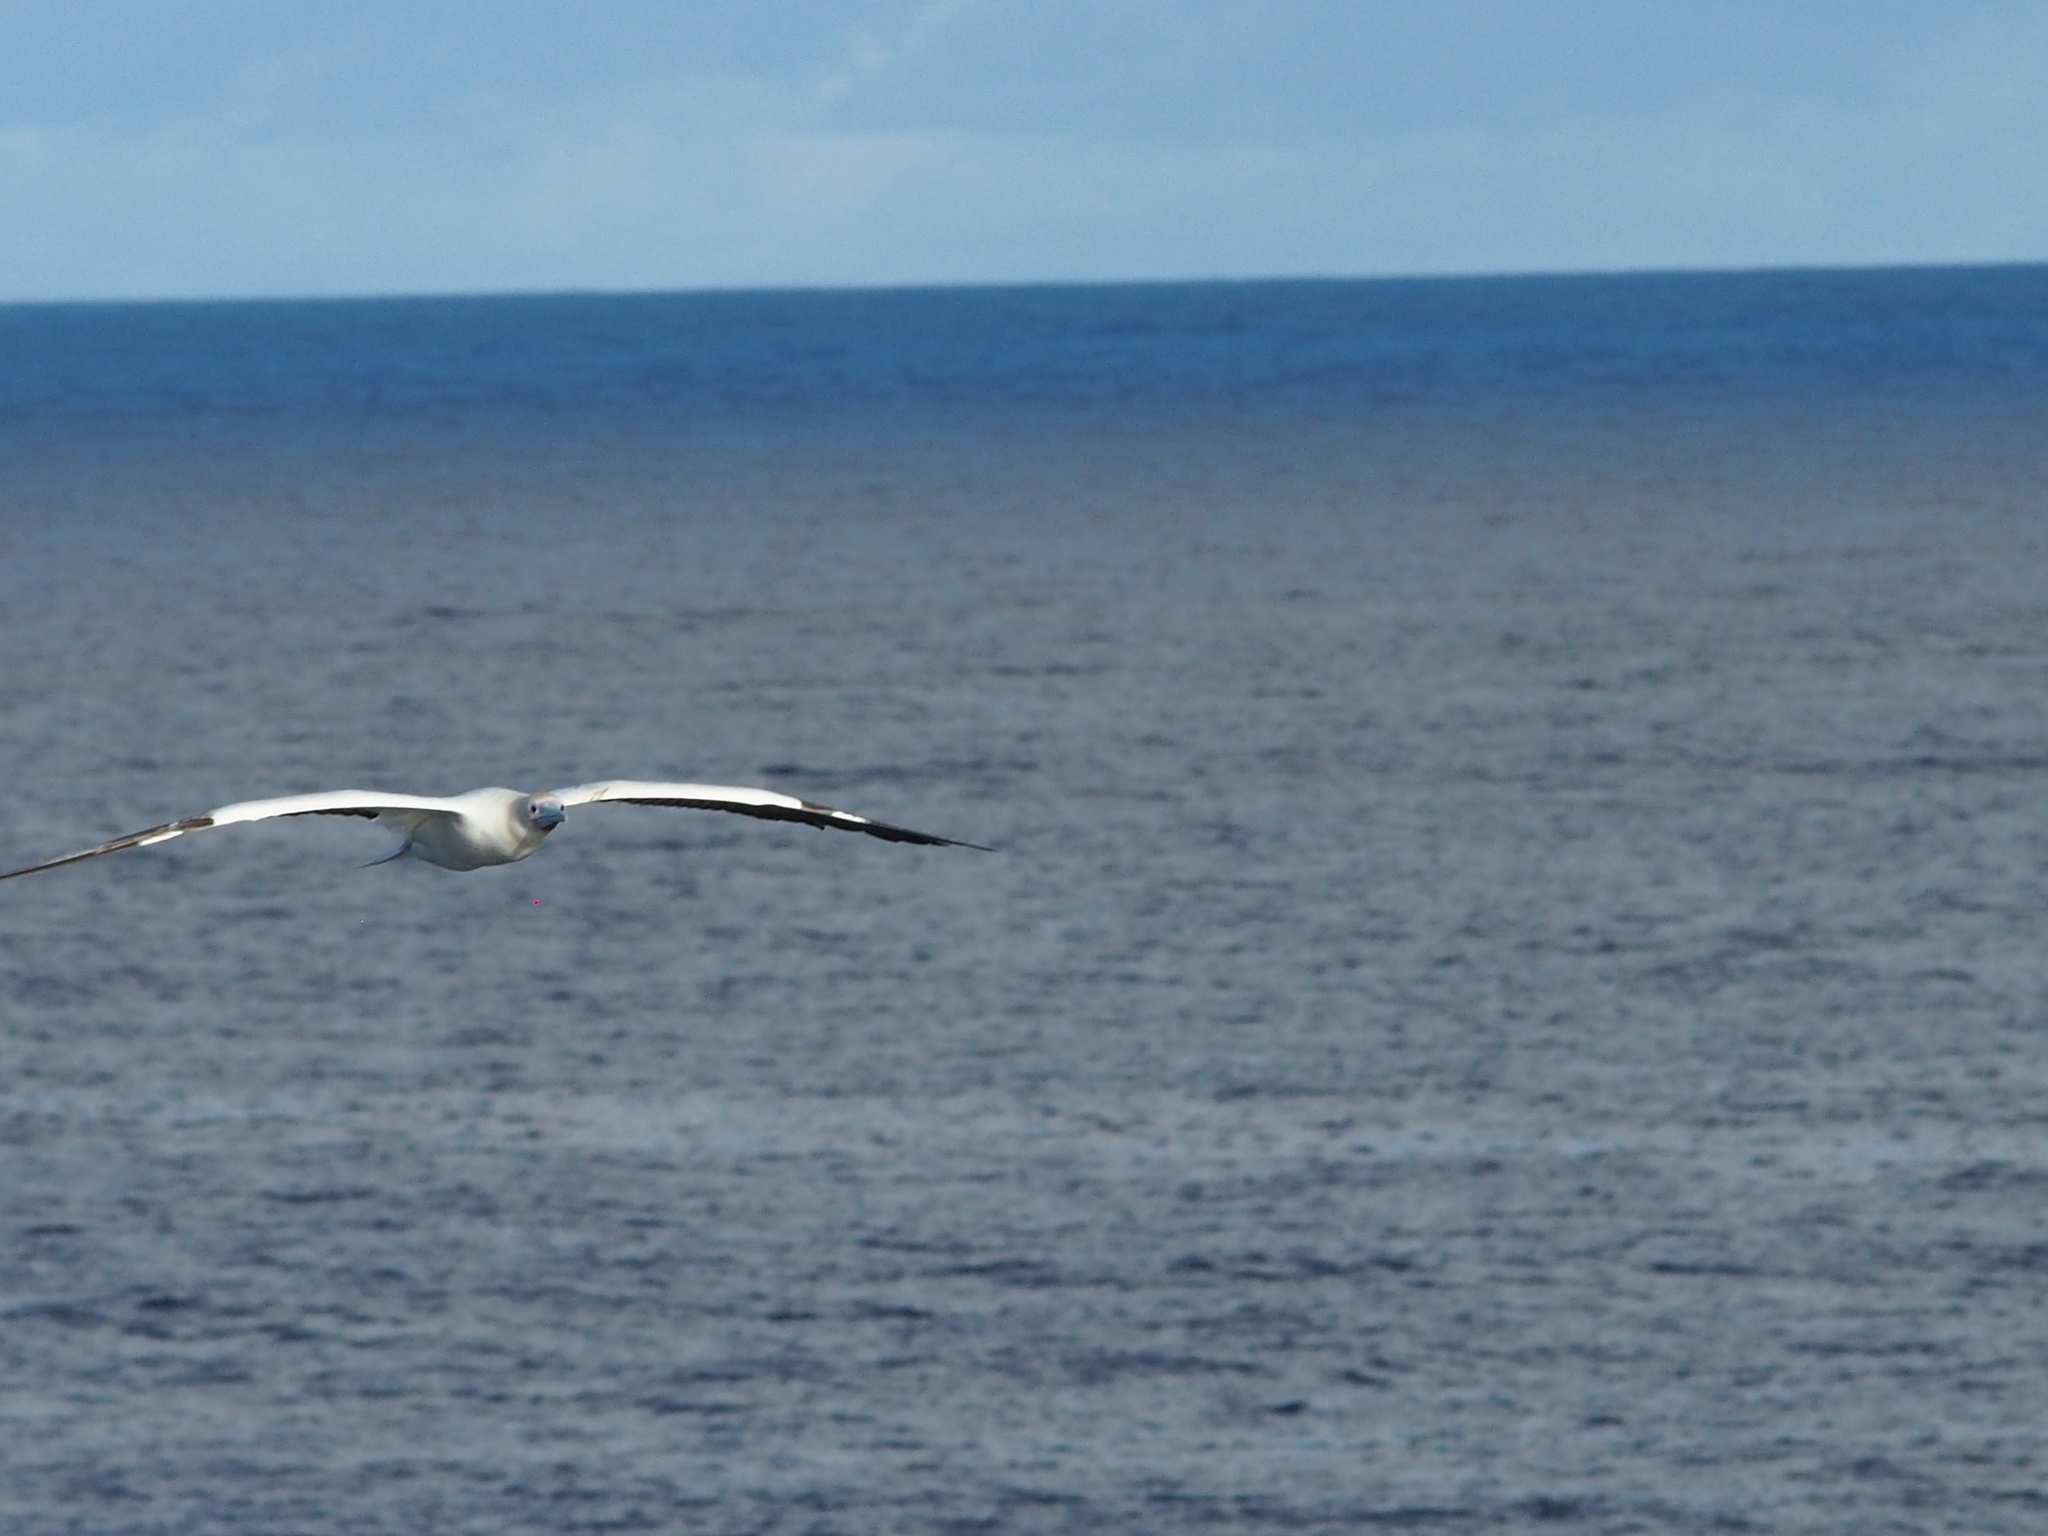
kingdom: Animalia
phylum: Chordata
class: Aves
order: Suliformes
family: Sulidae
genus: Sula
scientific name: Sula sula
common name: Red-footed booby
